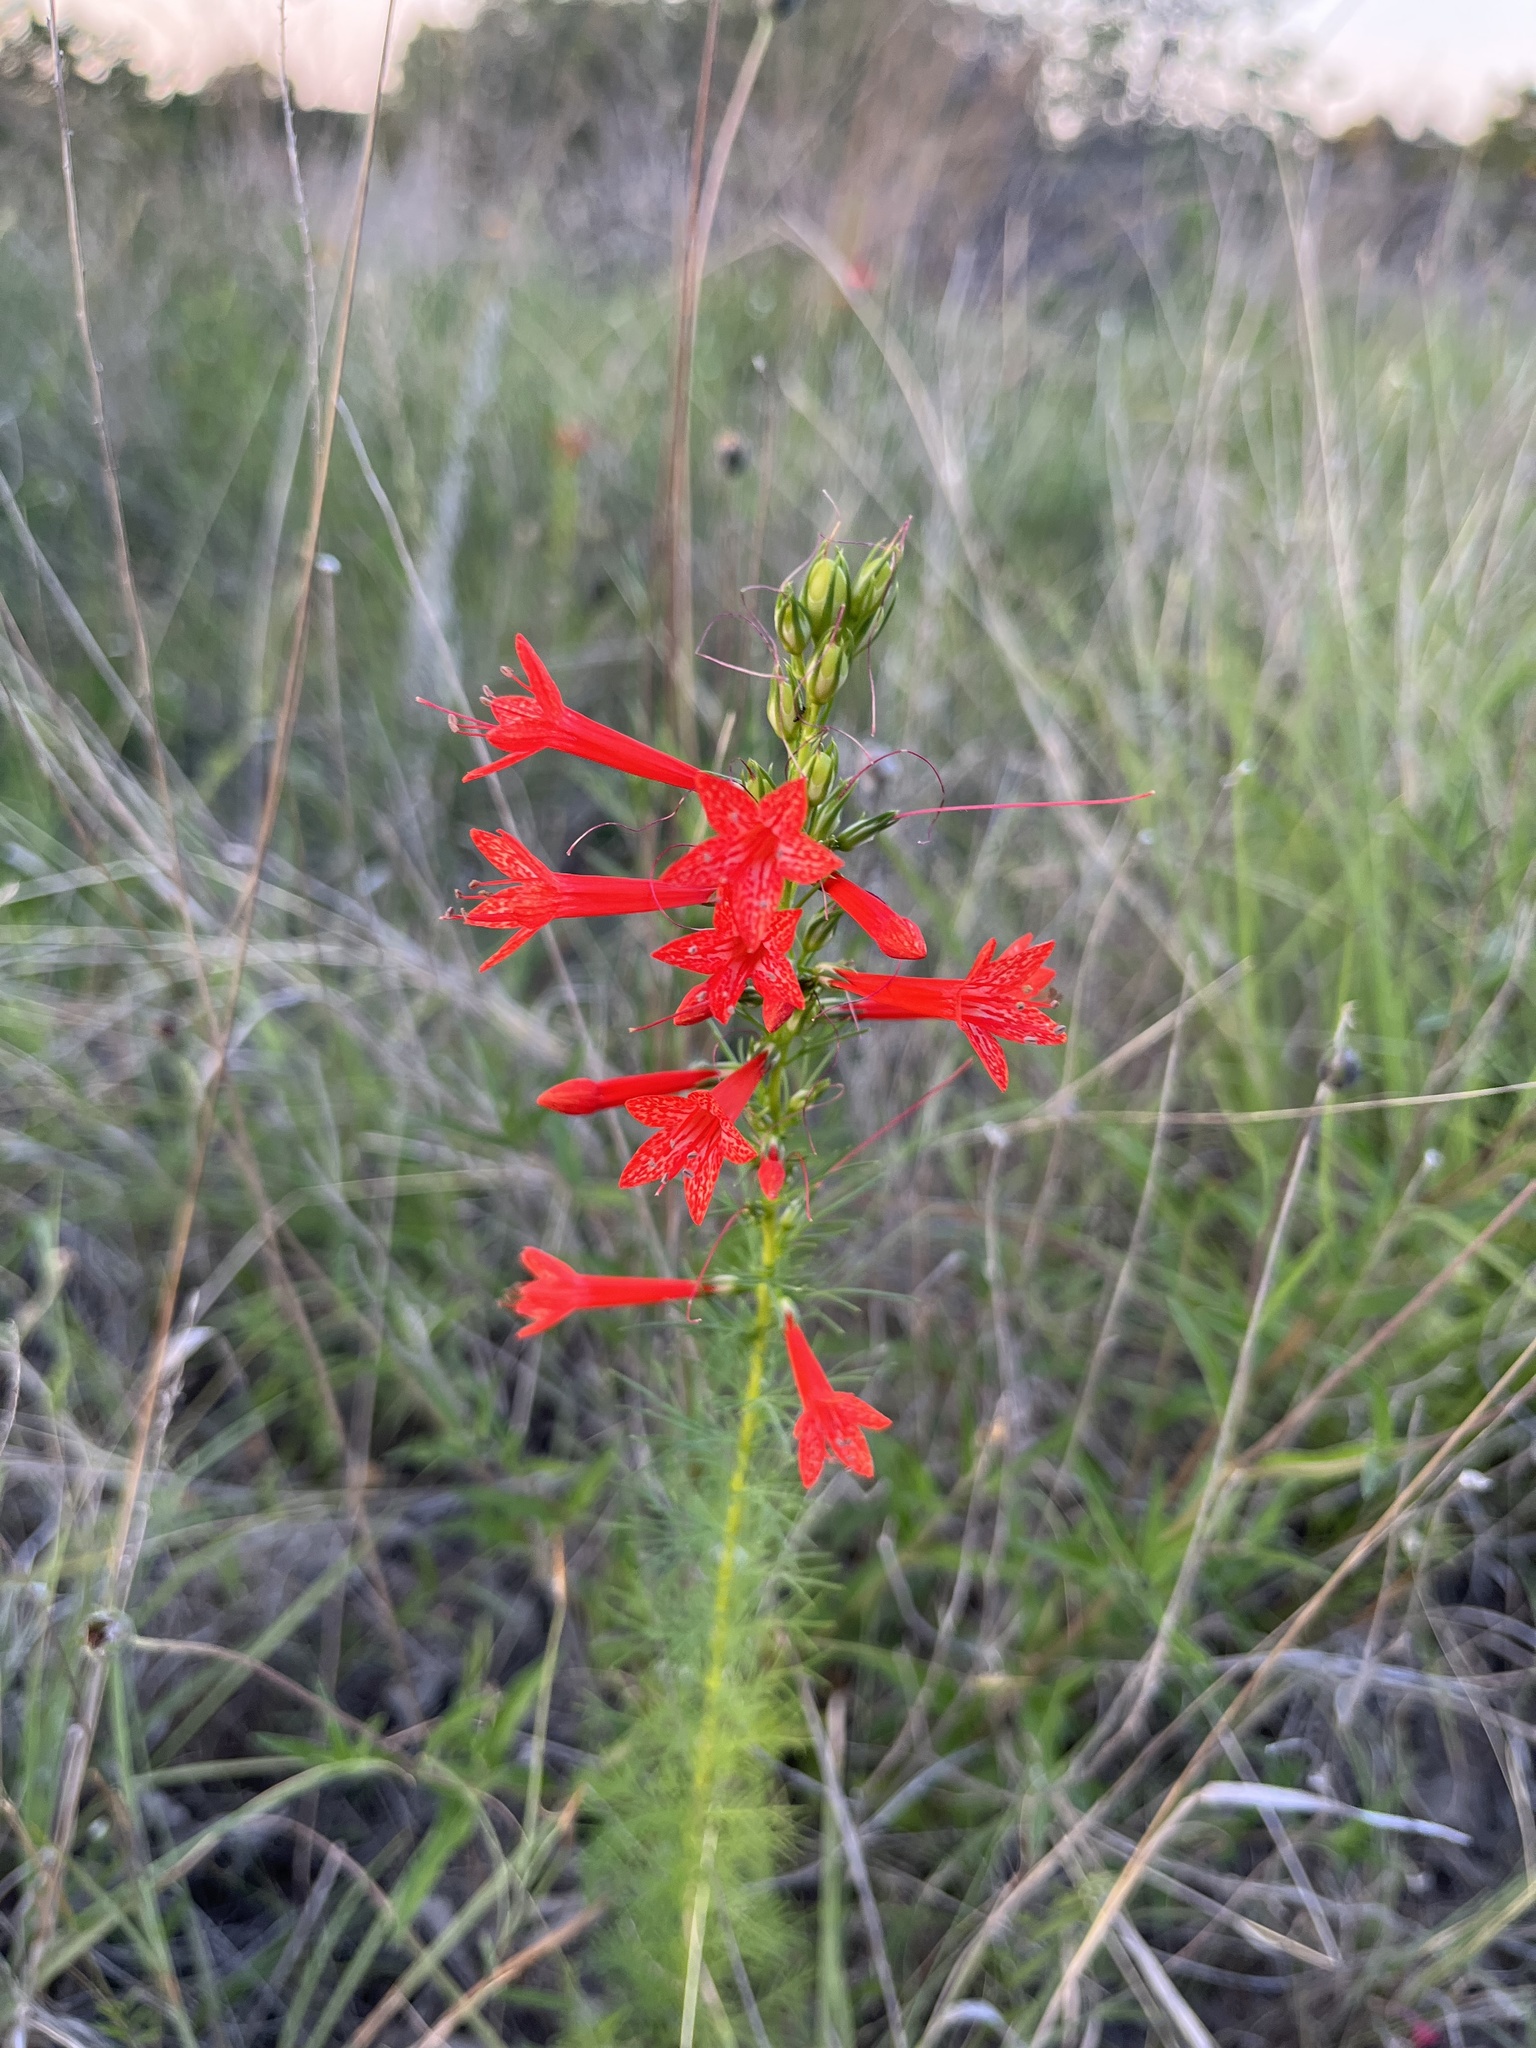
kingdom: Plantae
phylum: Tracheophyta
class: Magnoliopsida
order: Ericales
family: Polemoniaceae
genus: Ipomopsis
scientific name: Ipomopsis rubra
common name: Skyrocket
